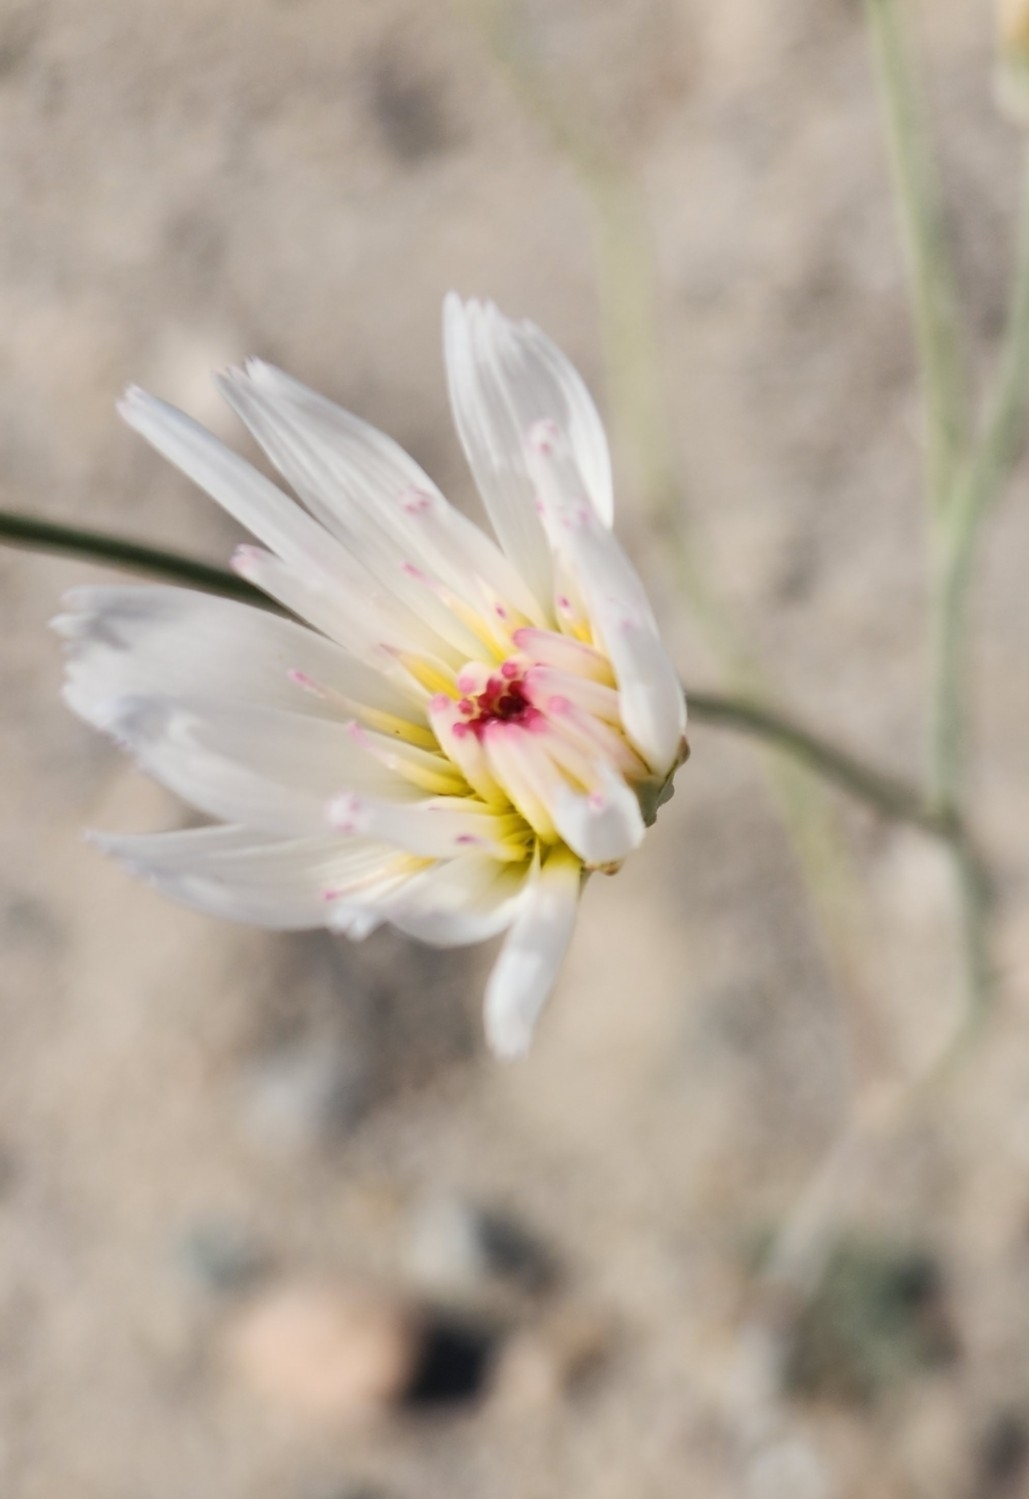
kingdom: Plantae
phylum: Tracheophyta
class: Magnoliopsida
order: Asterales
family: Asteraceae
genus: Atrichoseris
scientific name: Atrichoseris platyphylla
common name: Tobaccoweed
